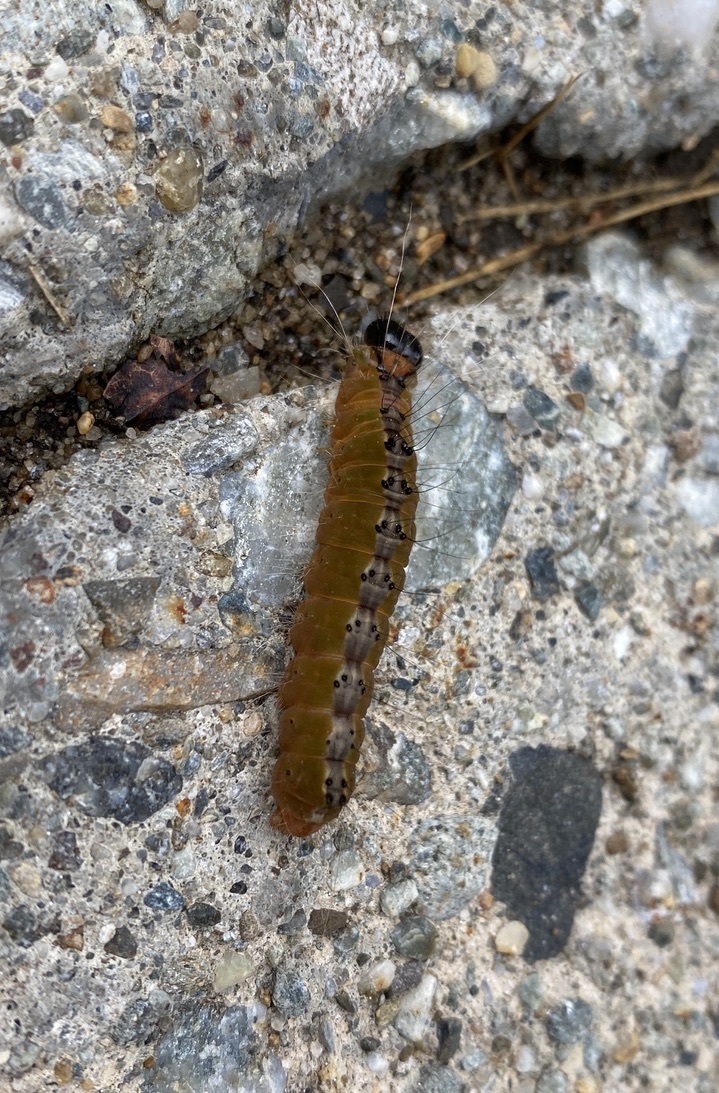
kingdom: Animalia
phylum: Arthropoda
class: Insecta
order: Lepidoptera
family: Noctuidae
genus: Acronicta
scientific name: Acronicta superans
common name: Splendid dagger
